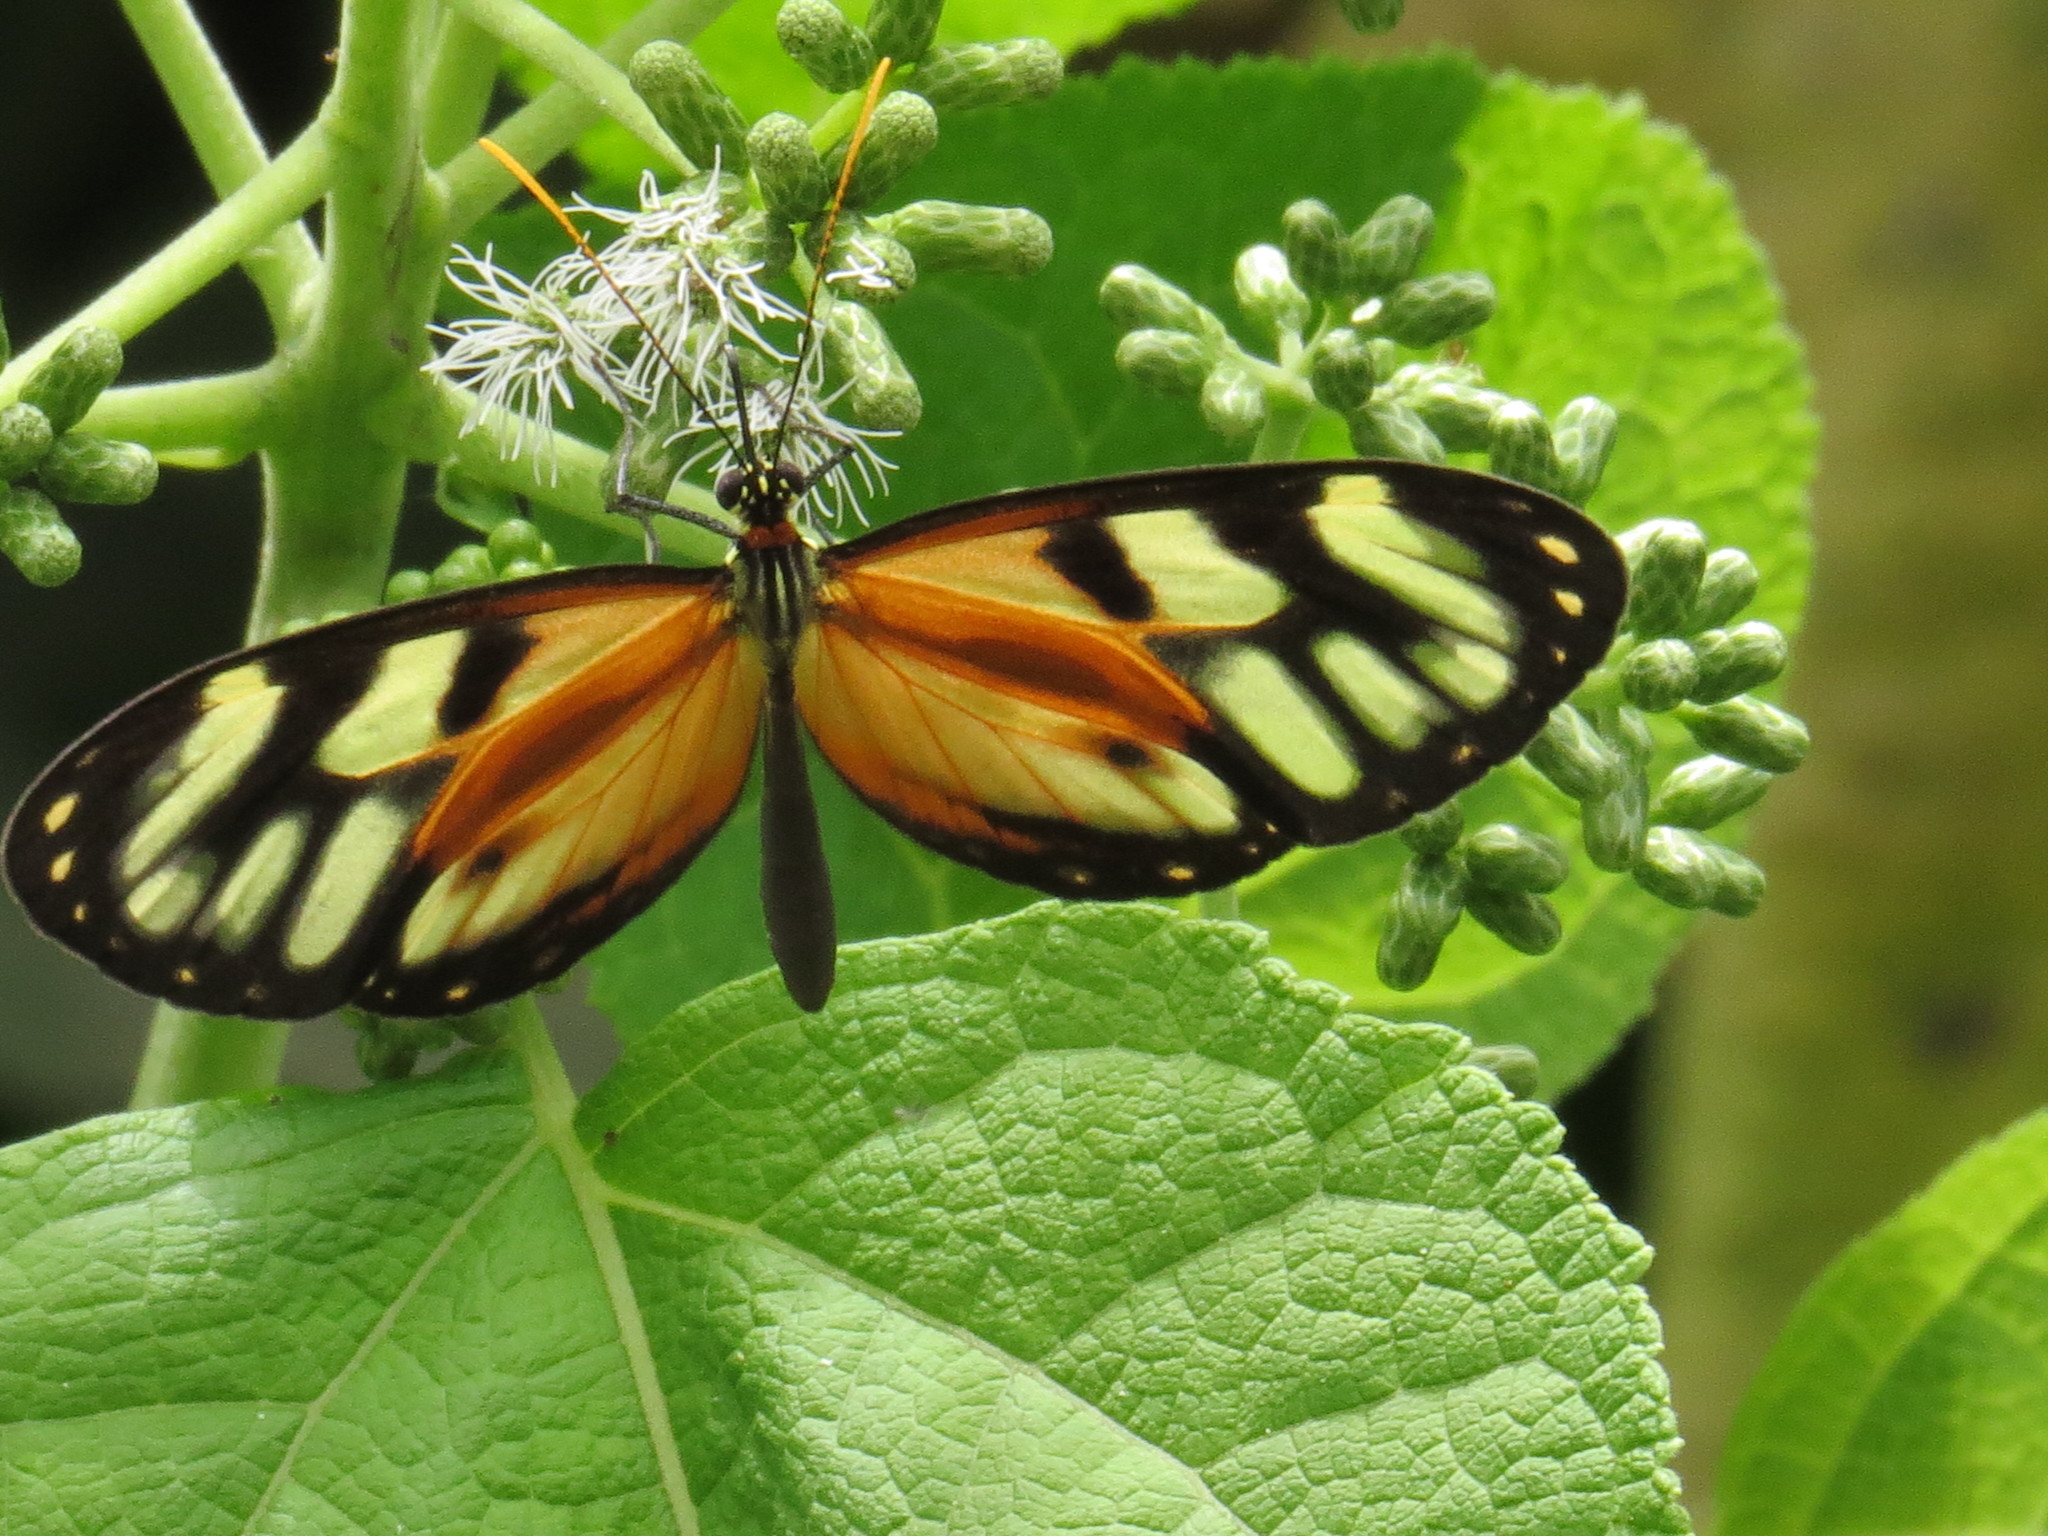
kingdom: Animalia
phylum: Arthropoda
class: Insecta
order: Lepidoptera
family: Nymphalidae
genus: Ithomia
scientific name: Ithomia iphianassa
